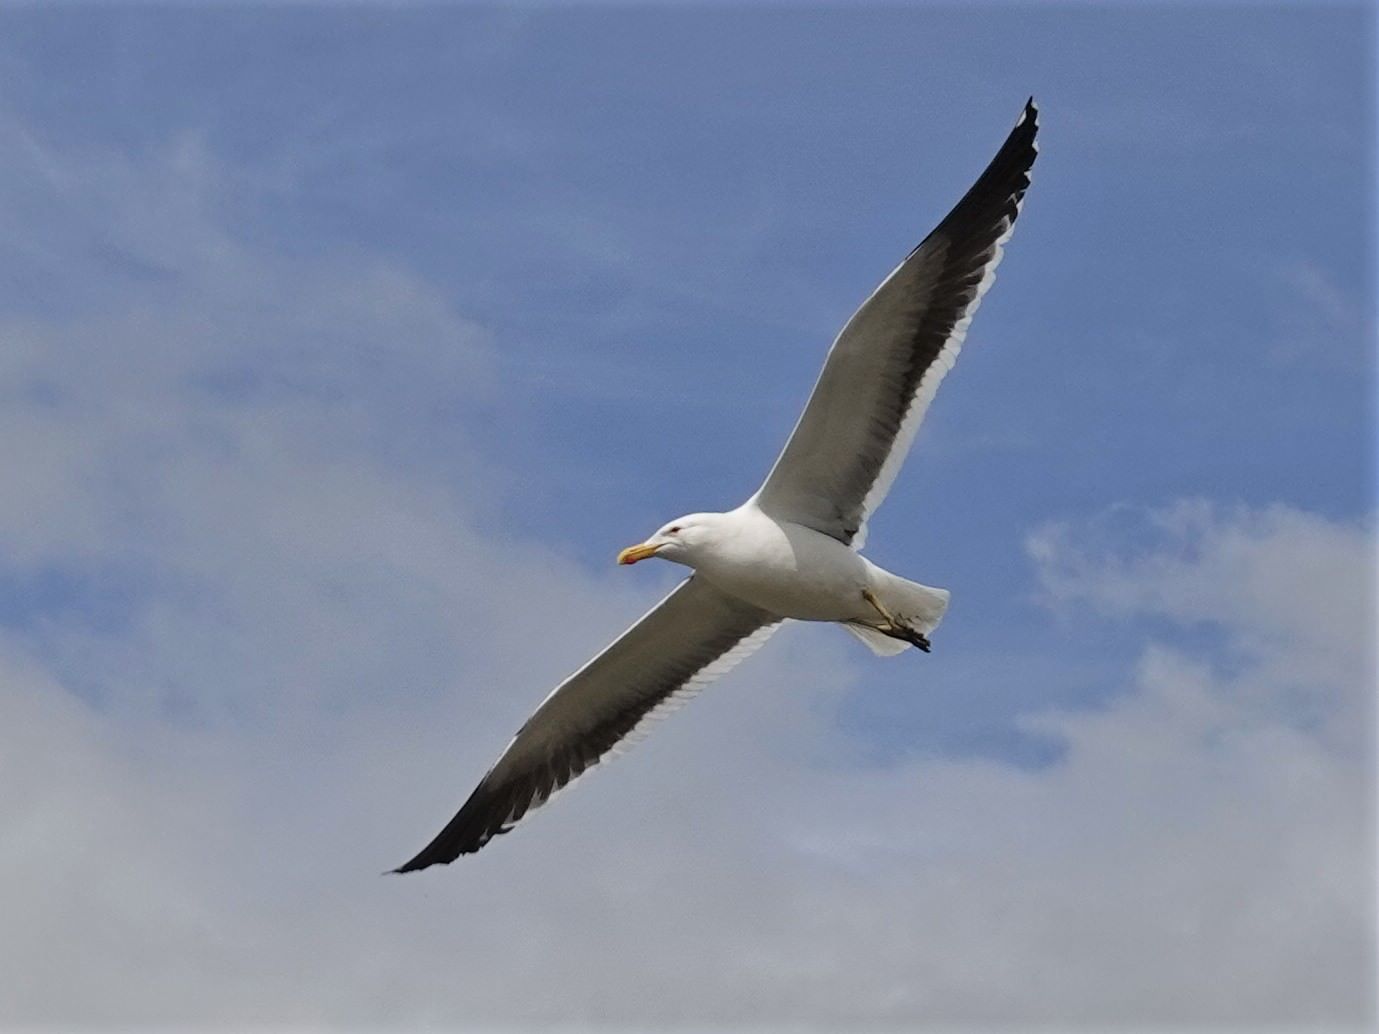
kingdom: Animalia
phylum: Chordata
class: Aves
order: Charadriiformes
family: Laridae
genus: Larus
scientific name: Larus dominicanus
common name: Kelp gull
